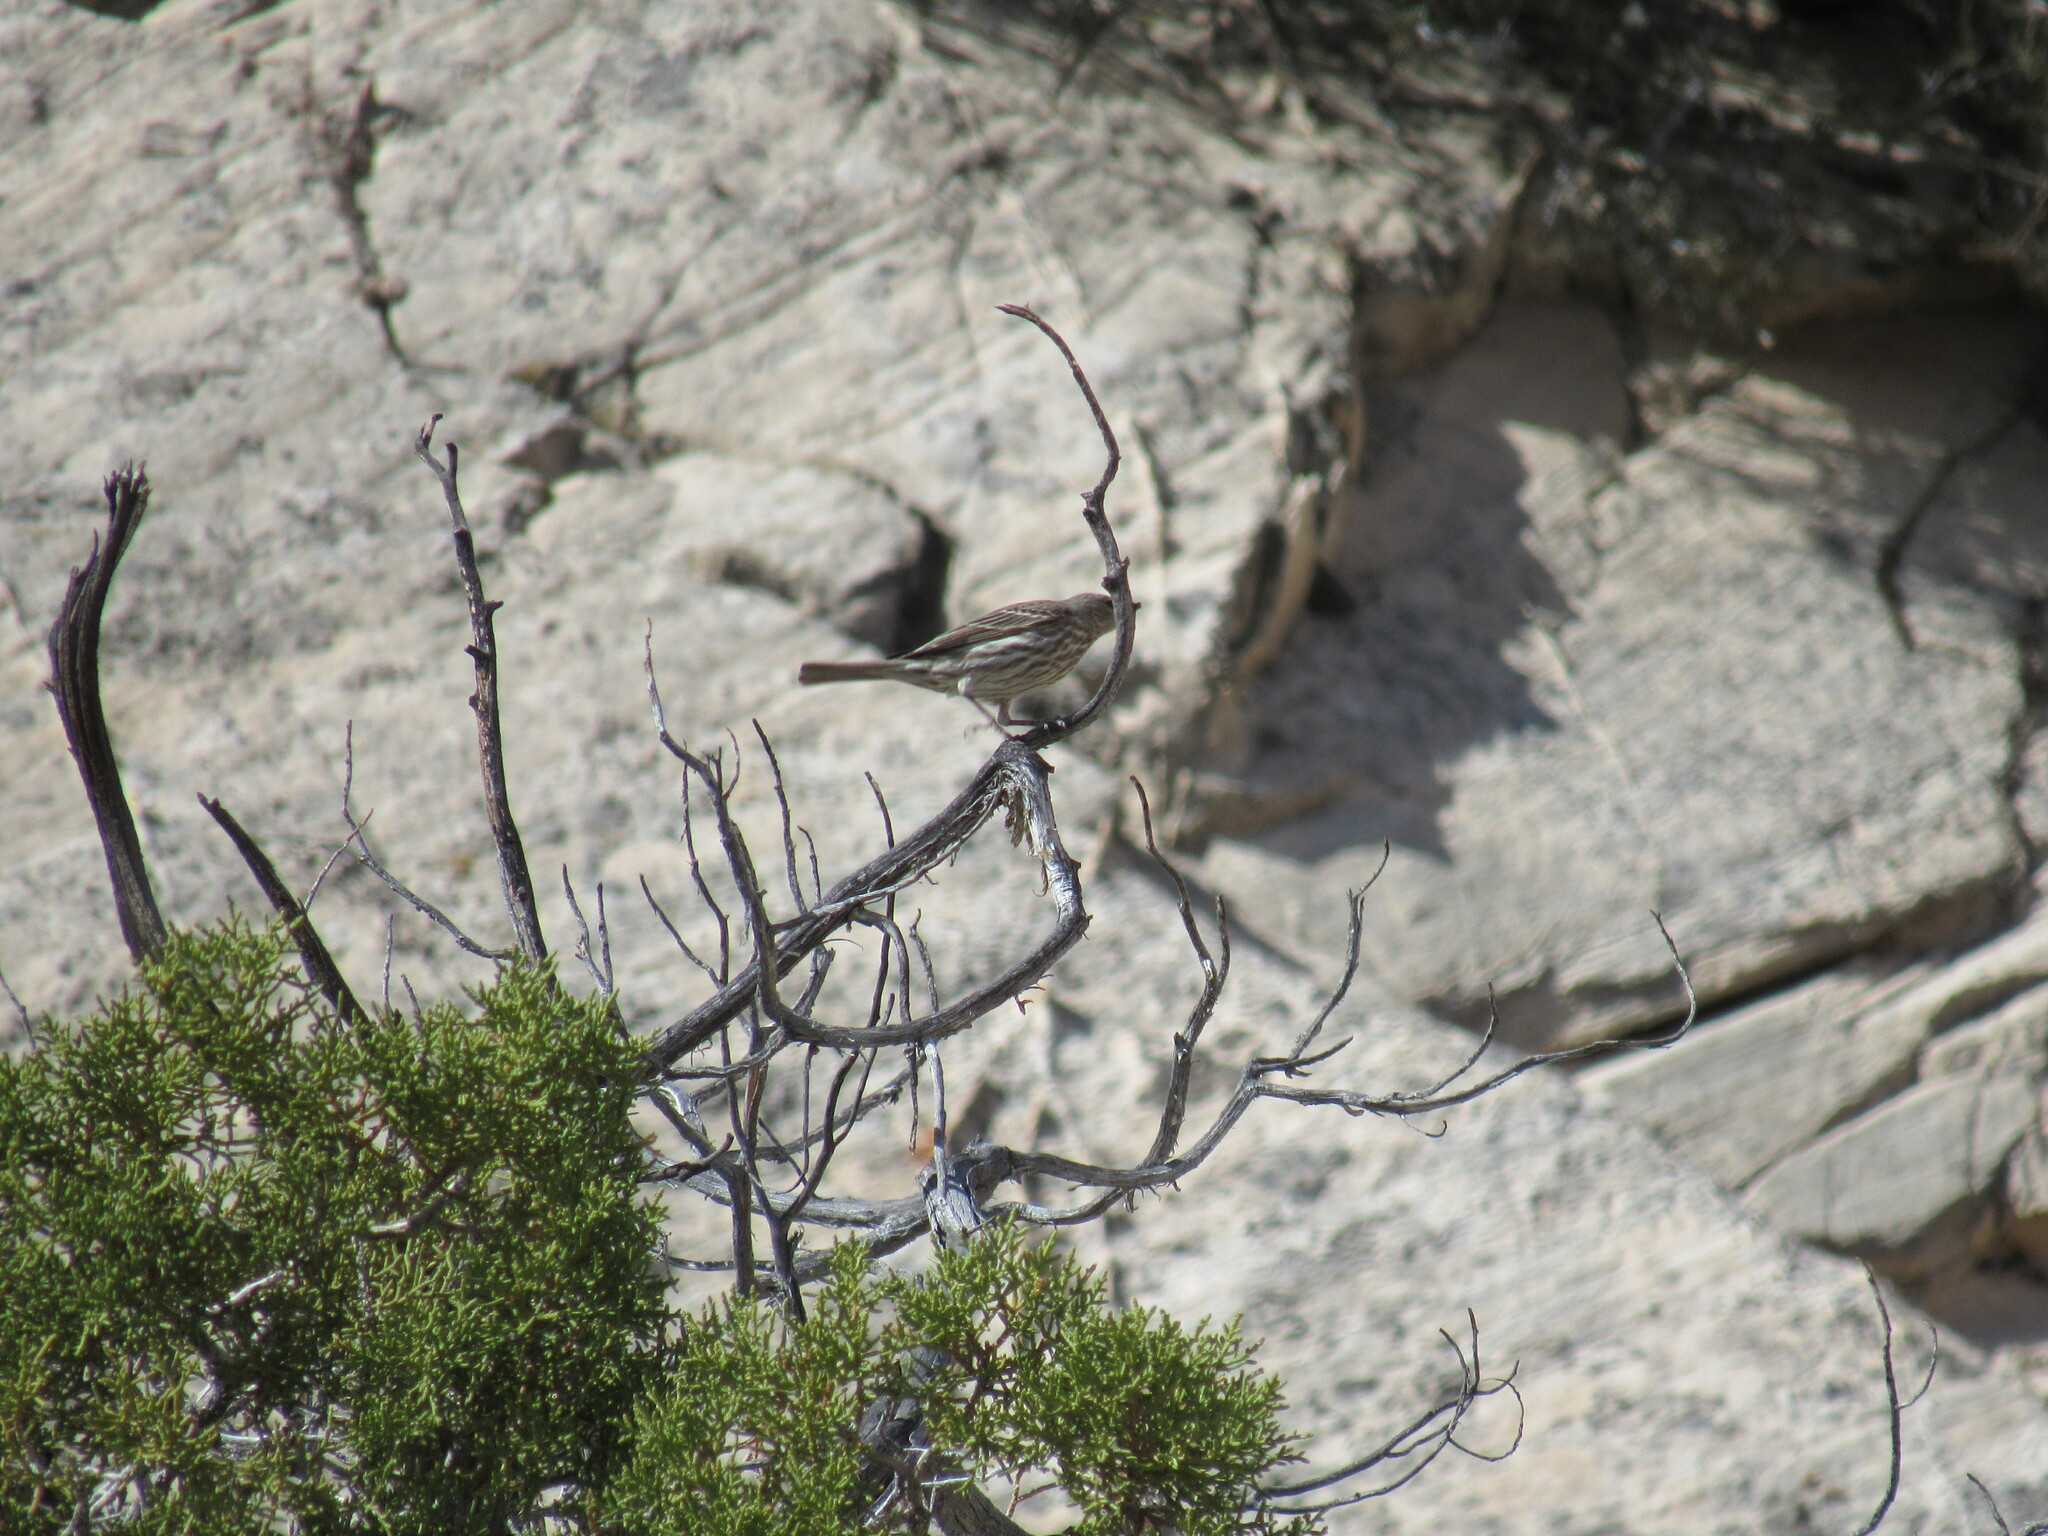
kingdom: Animalia
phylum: Chordata
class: Aves
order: Passeriformes
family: Fringillidae
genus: Haemorhous
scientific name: Haemorhous mexicanus
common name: House finch
